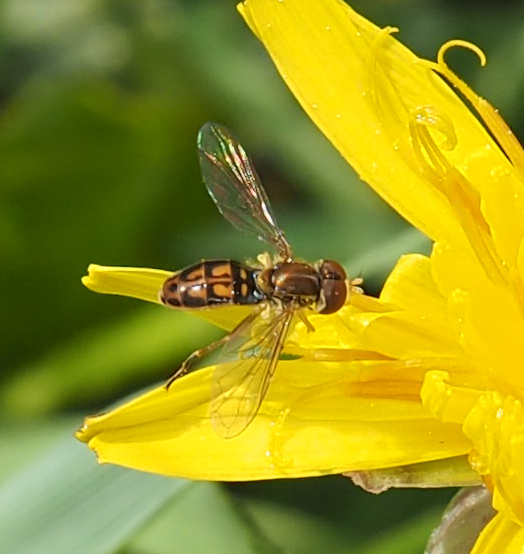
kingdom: Animalia
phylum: Arthropoda
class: Insecta
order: Diptera
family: Syrphidae
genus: Toxomerus
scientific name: Toxomerus marginatus
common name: Syrphid fly
